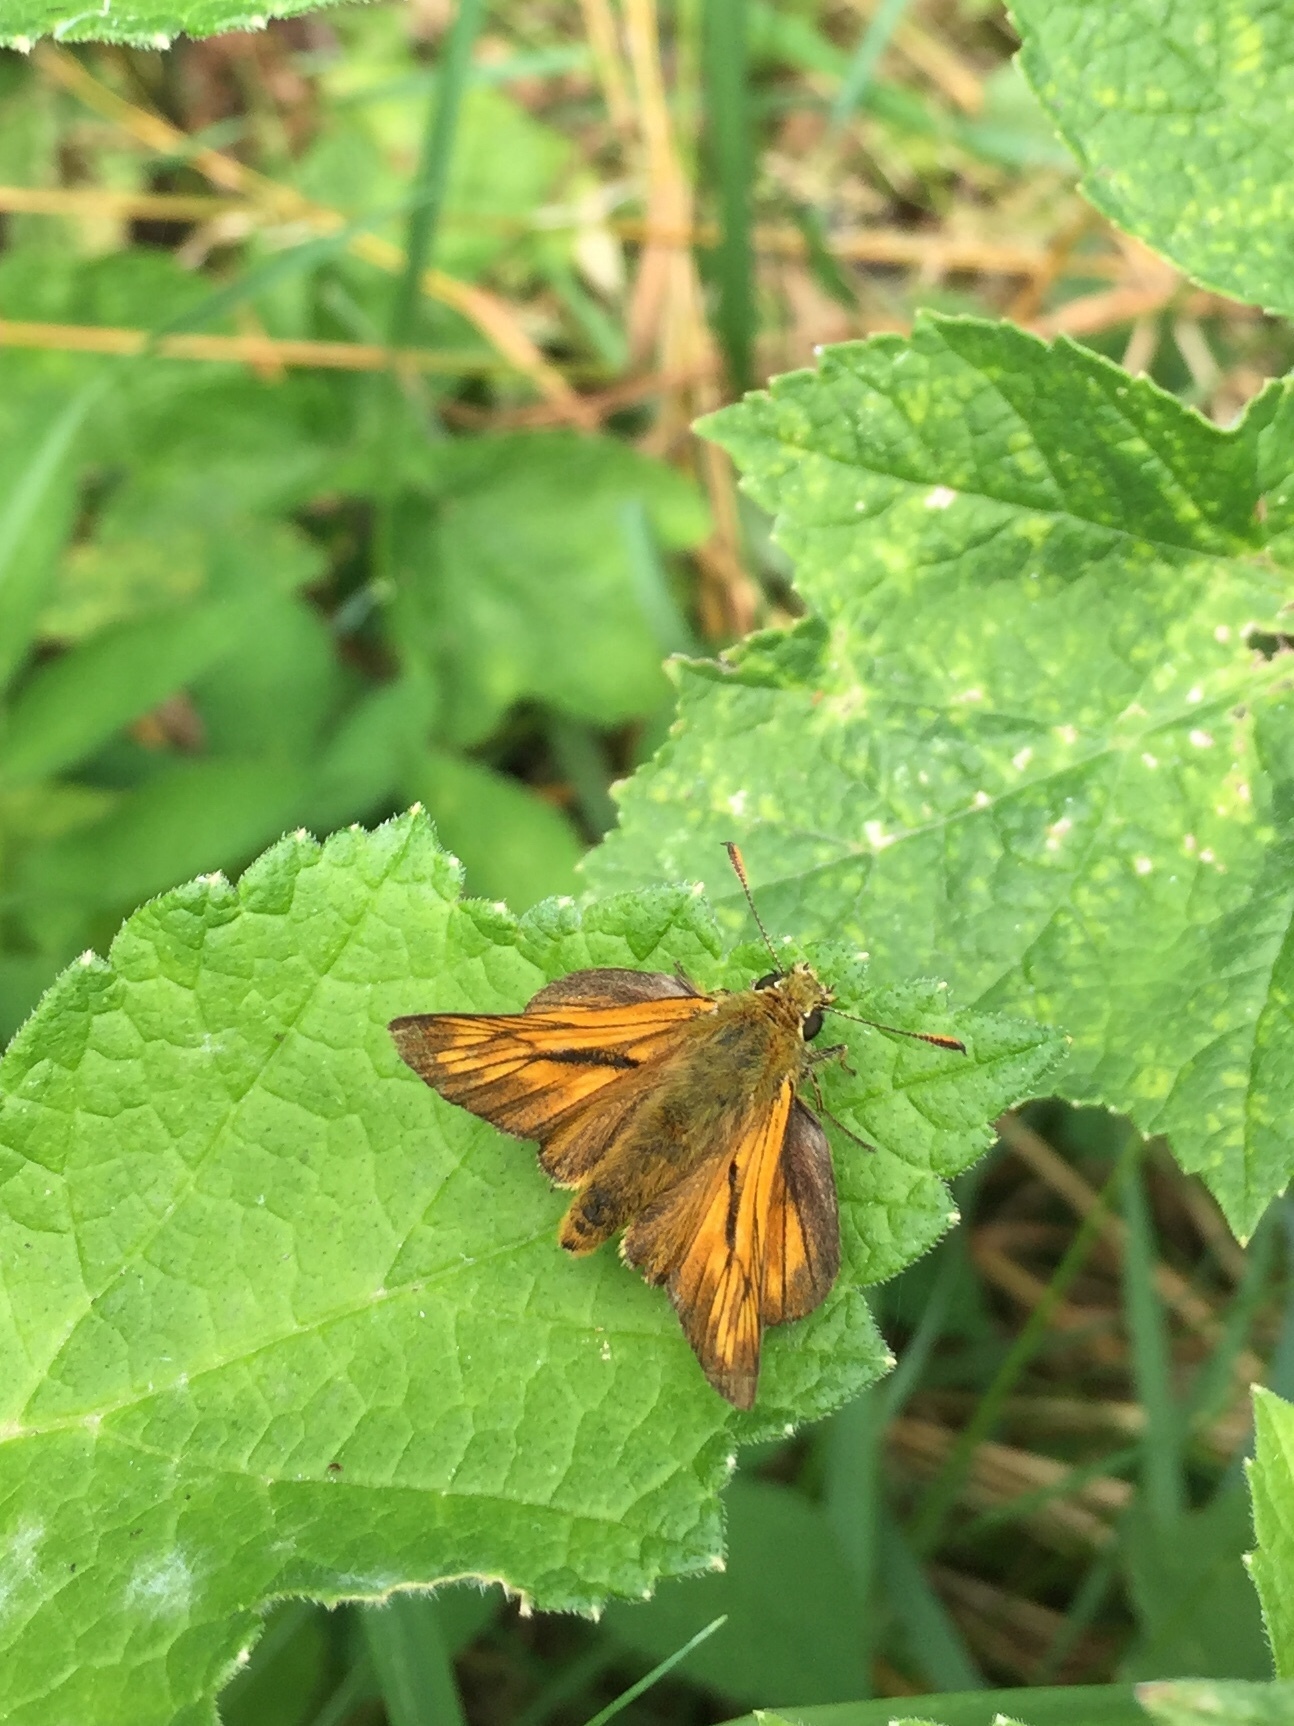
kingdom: Animalia
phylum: Arthropoda
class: Insecta
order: Lepidoptera
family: Hesperiidae
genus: Ochlodes
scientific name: Ochlodes venata
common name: Large skipper
